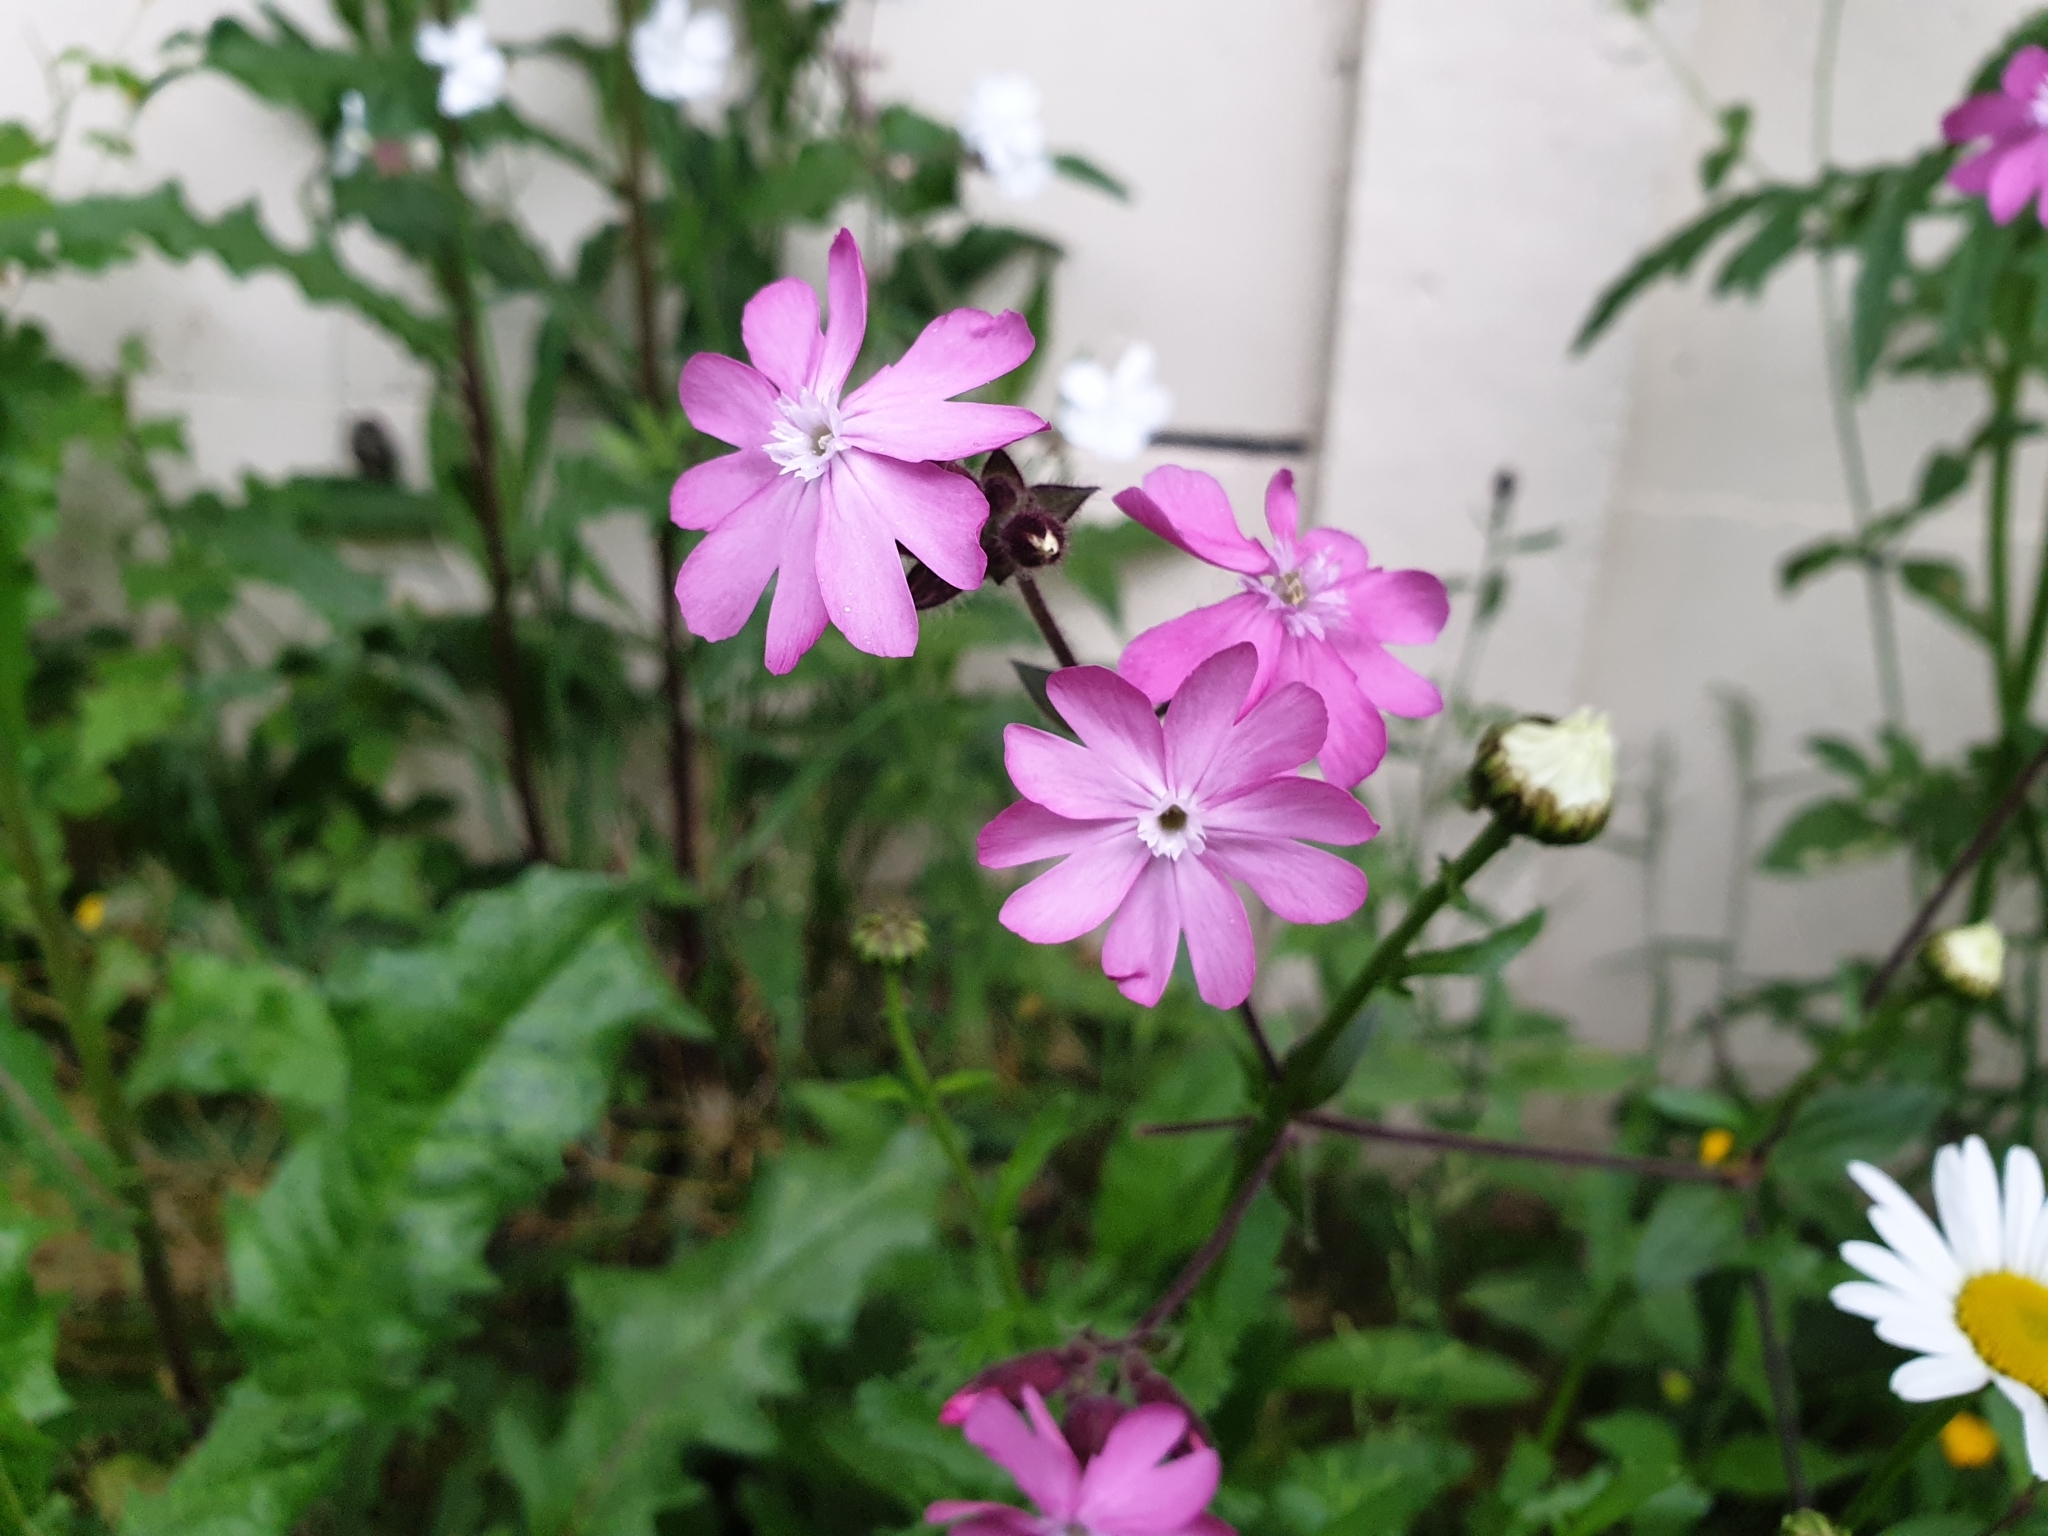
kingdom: Plantae
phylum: Tracheophyta
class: Magnoliopsida
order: Caryophyllales
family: Caryophyllaceae
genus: Silene
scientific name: Silene dioica
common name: Red campion
